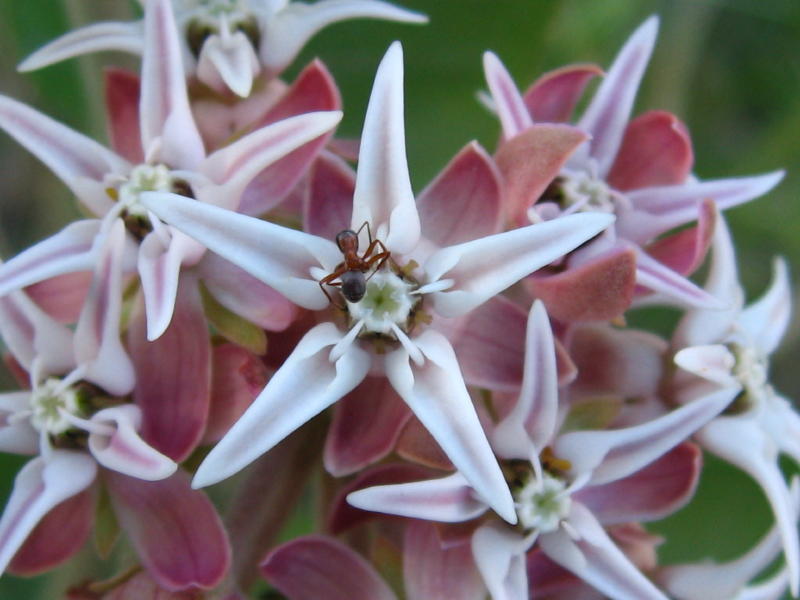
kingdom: Plantae
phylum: Tracheophyta
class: Magnoliopsida
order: Gentianales
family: Apocynaceae
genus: Asclepias
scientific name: Asclepias speciosa
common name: Showy milkweed
